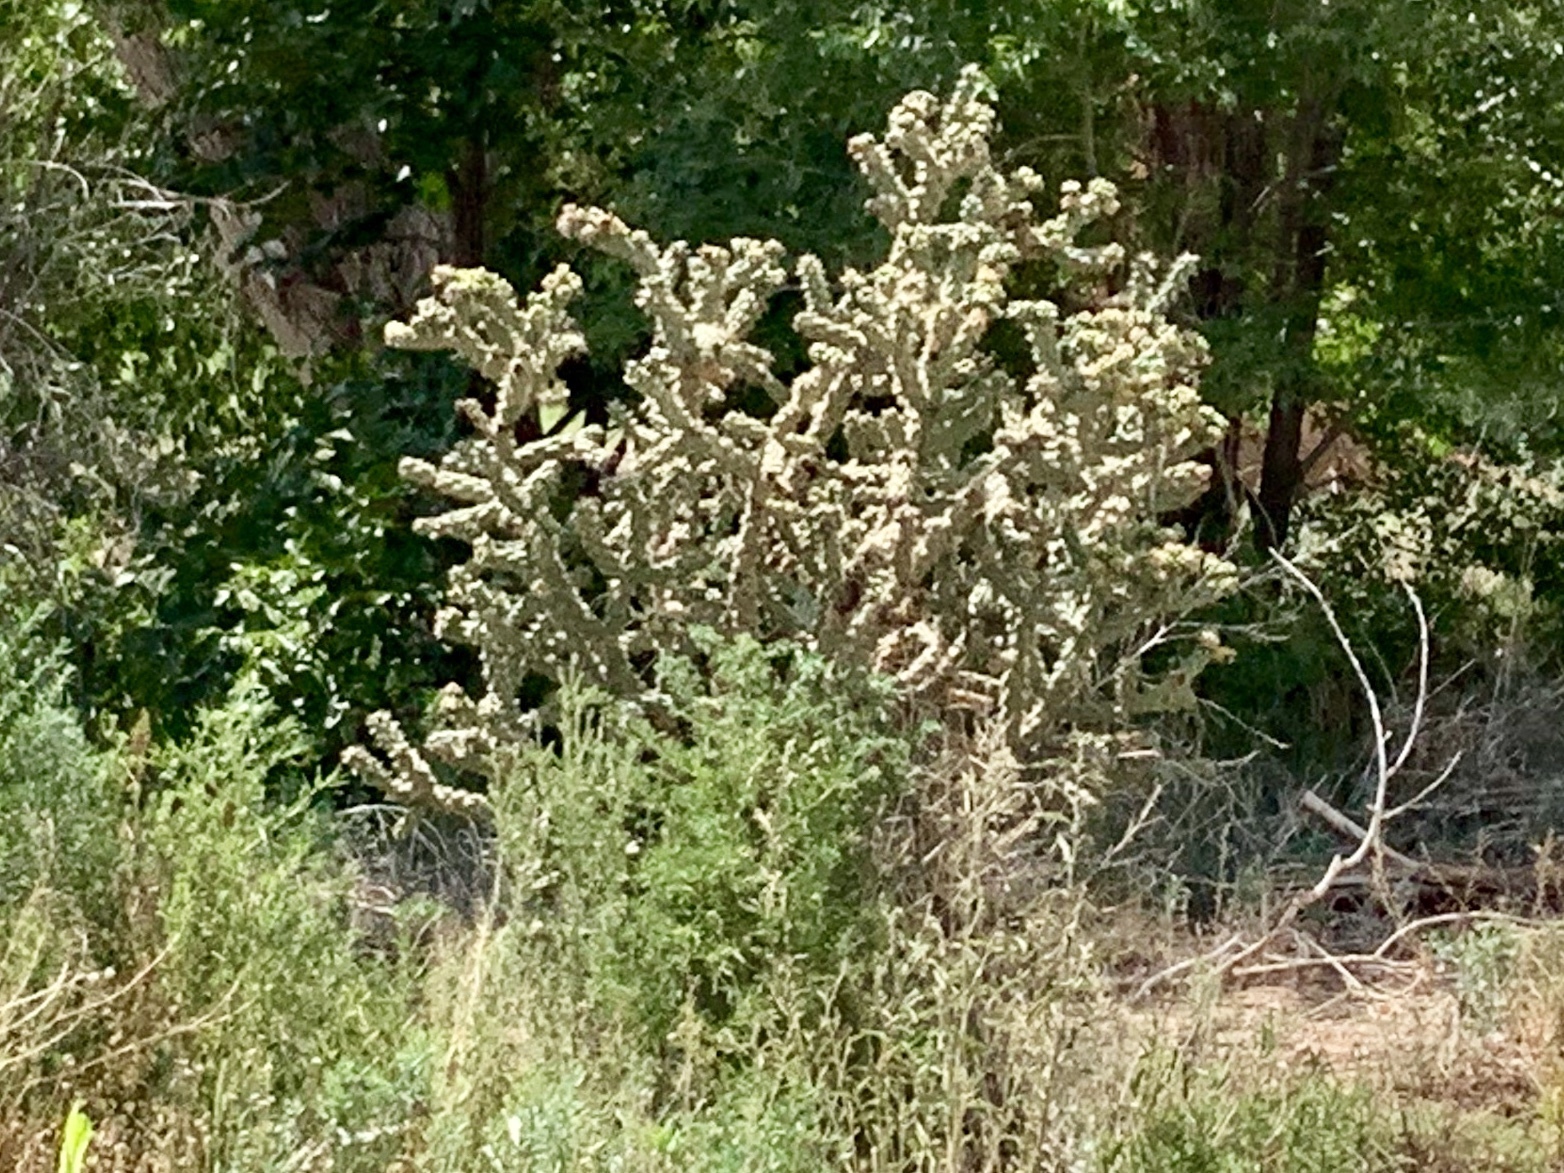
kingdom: Plantae
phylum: Tracheophyta
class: Magnoliopsida
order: Caryophyllales
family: Cactaceae
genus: Cylindropuntia
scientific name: Cylindropuntia imbricata
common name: Candelabrum cactus
